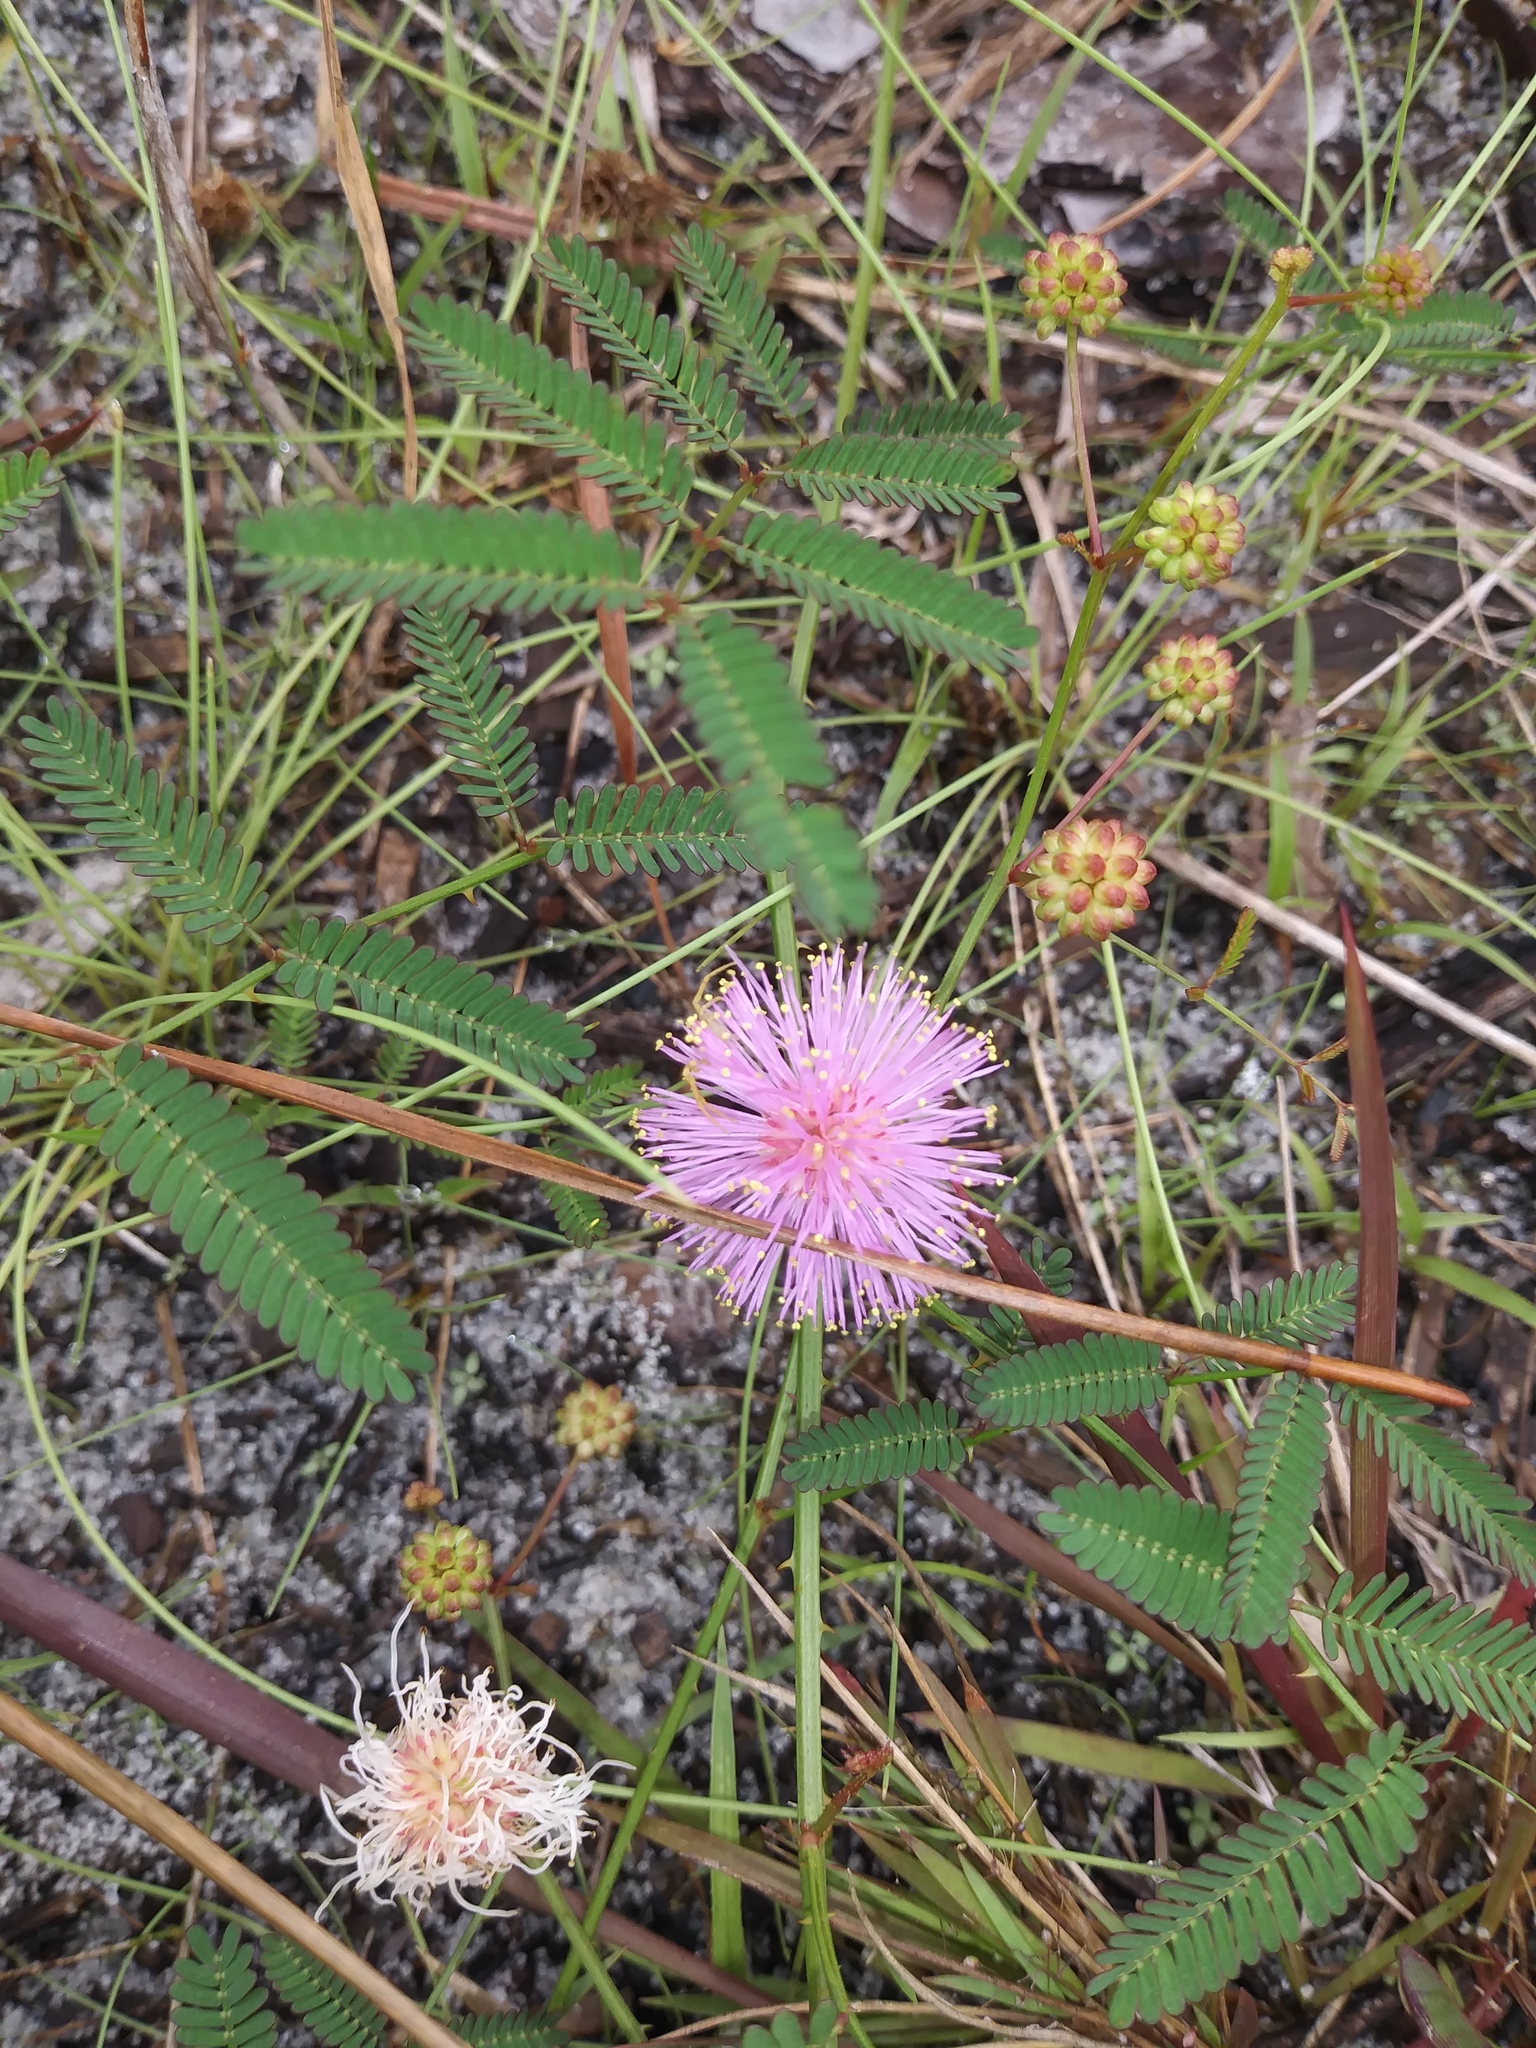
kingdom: Plantae
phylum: Tracheophyta
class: Magnoliopsida
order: Fabales
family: Fabaceae
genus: Mimosa
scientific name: Mimosa floridana
